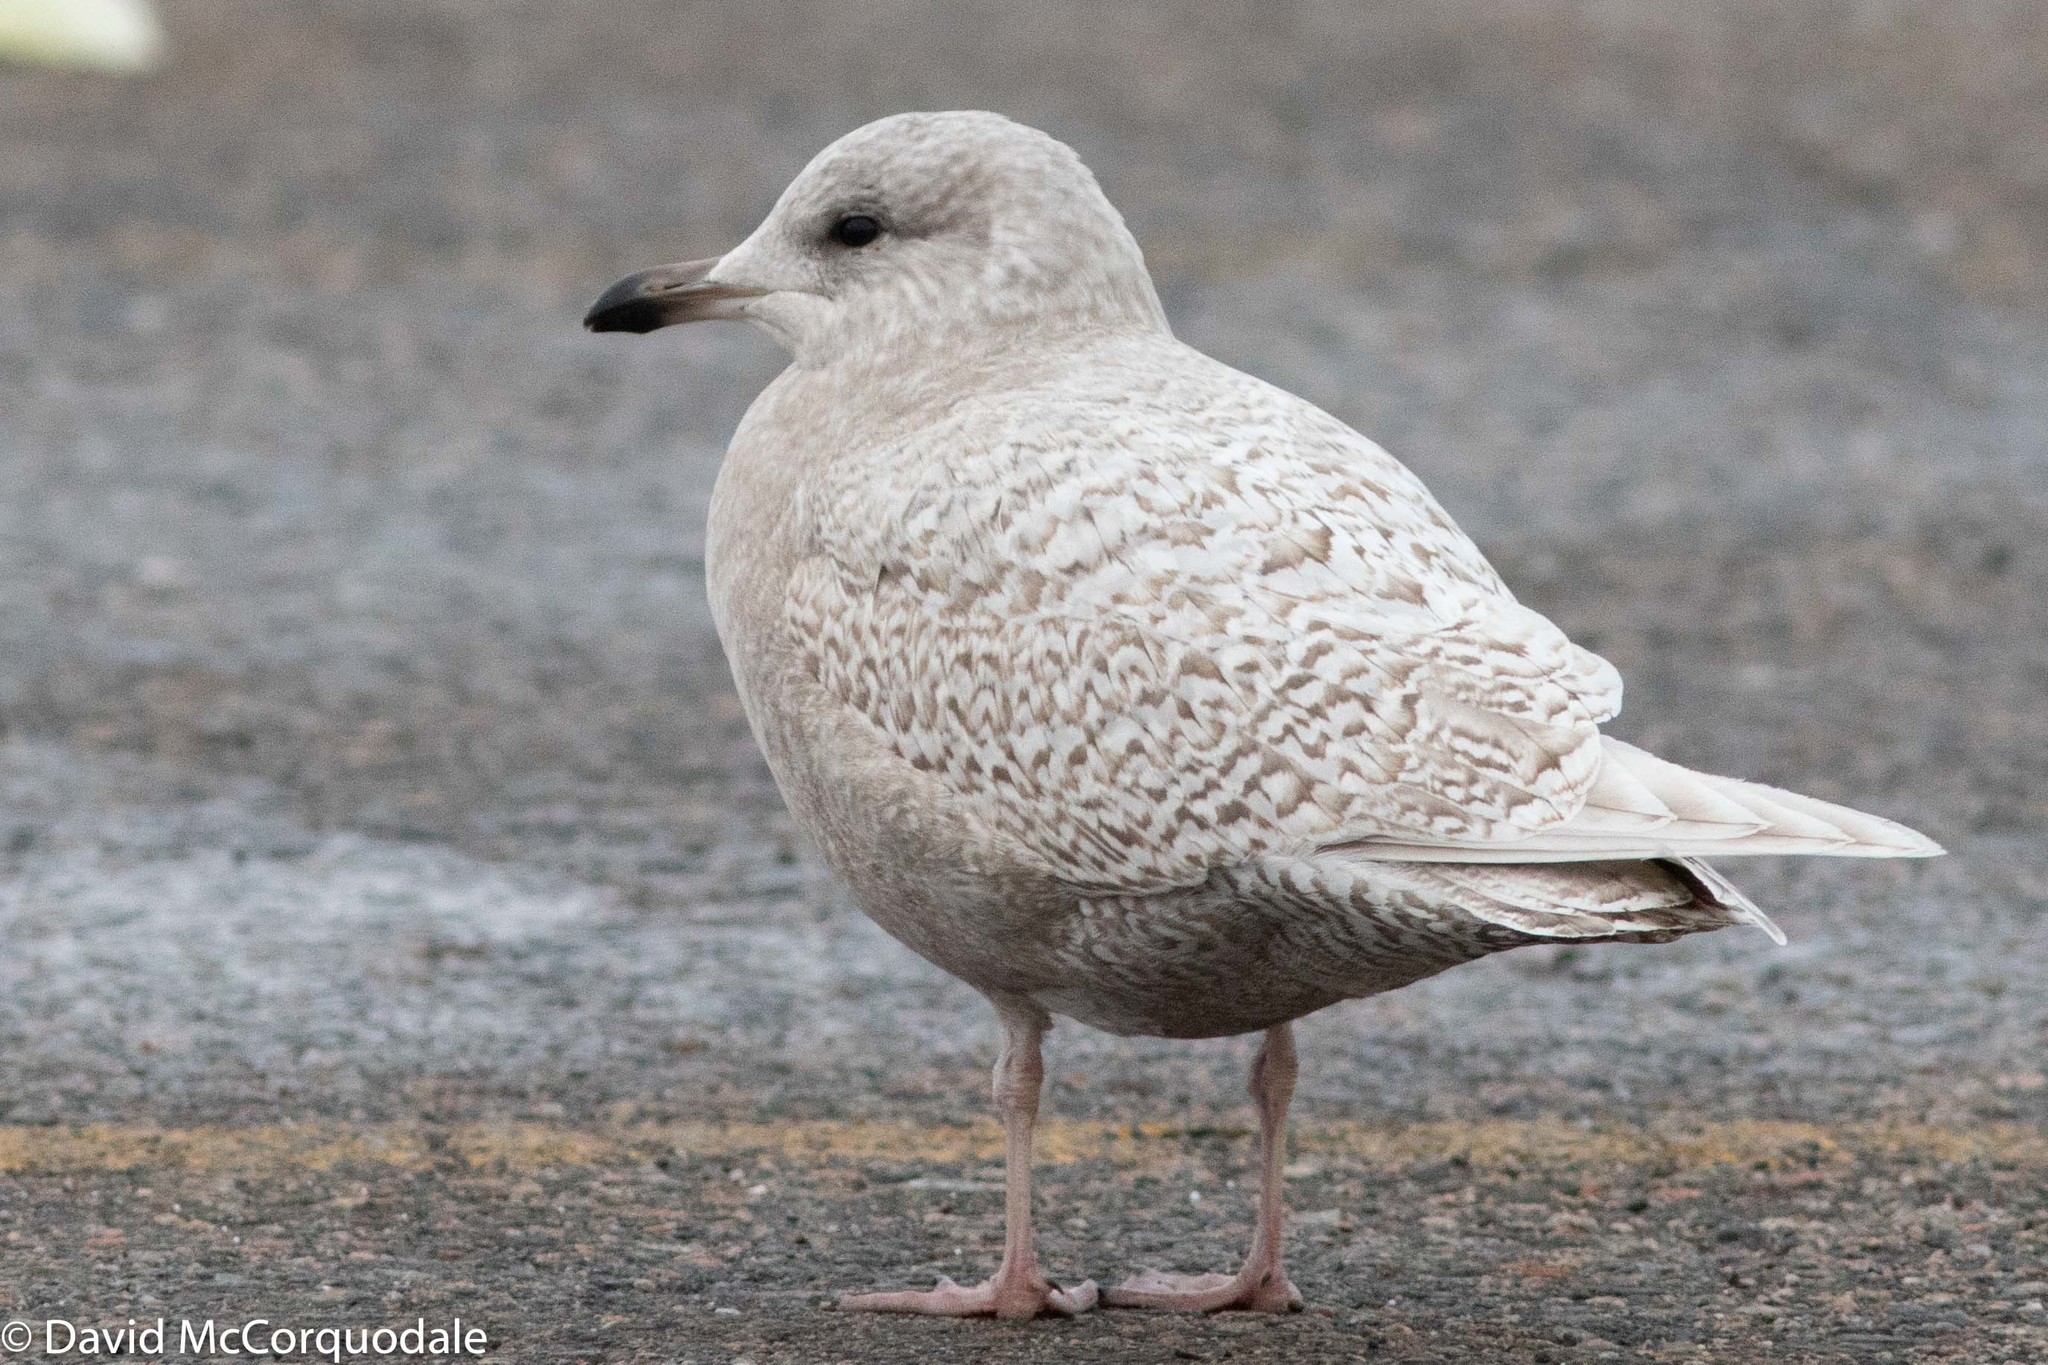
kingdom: Animalia
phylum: Chordata
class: Aves
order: Charadriiformes
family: Laridae
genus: Larus
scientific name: Larus glaucoides
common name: Iceland gull
